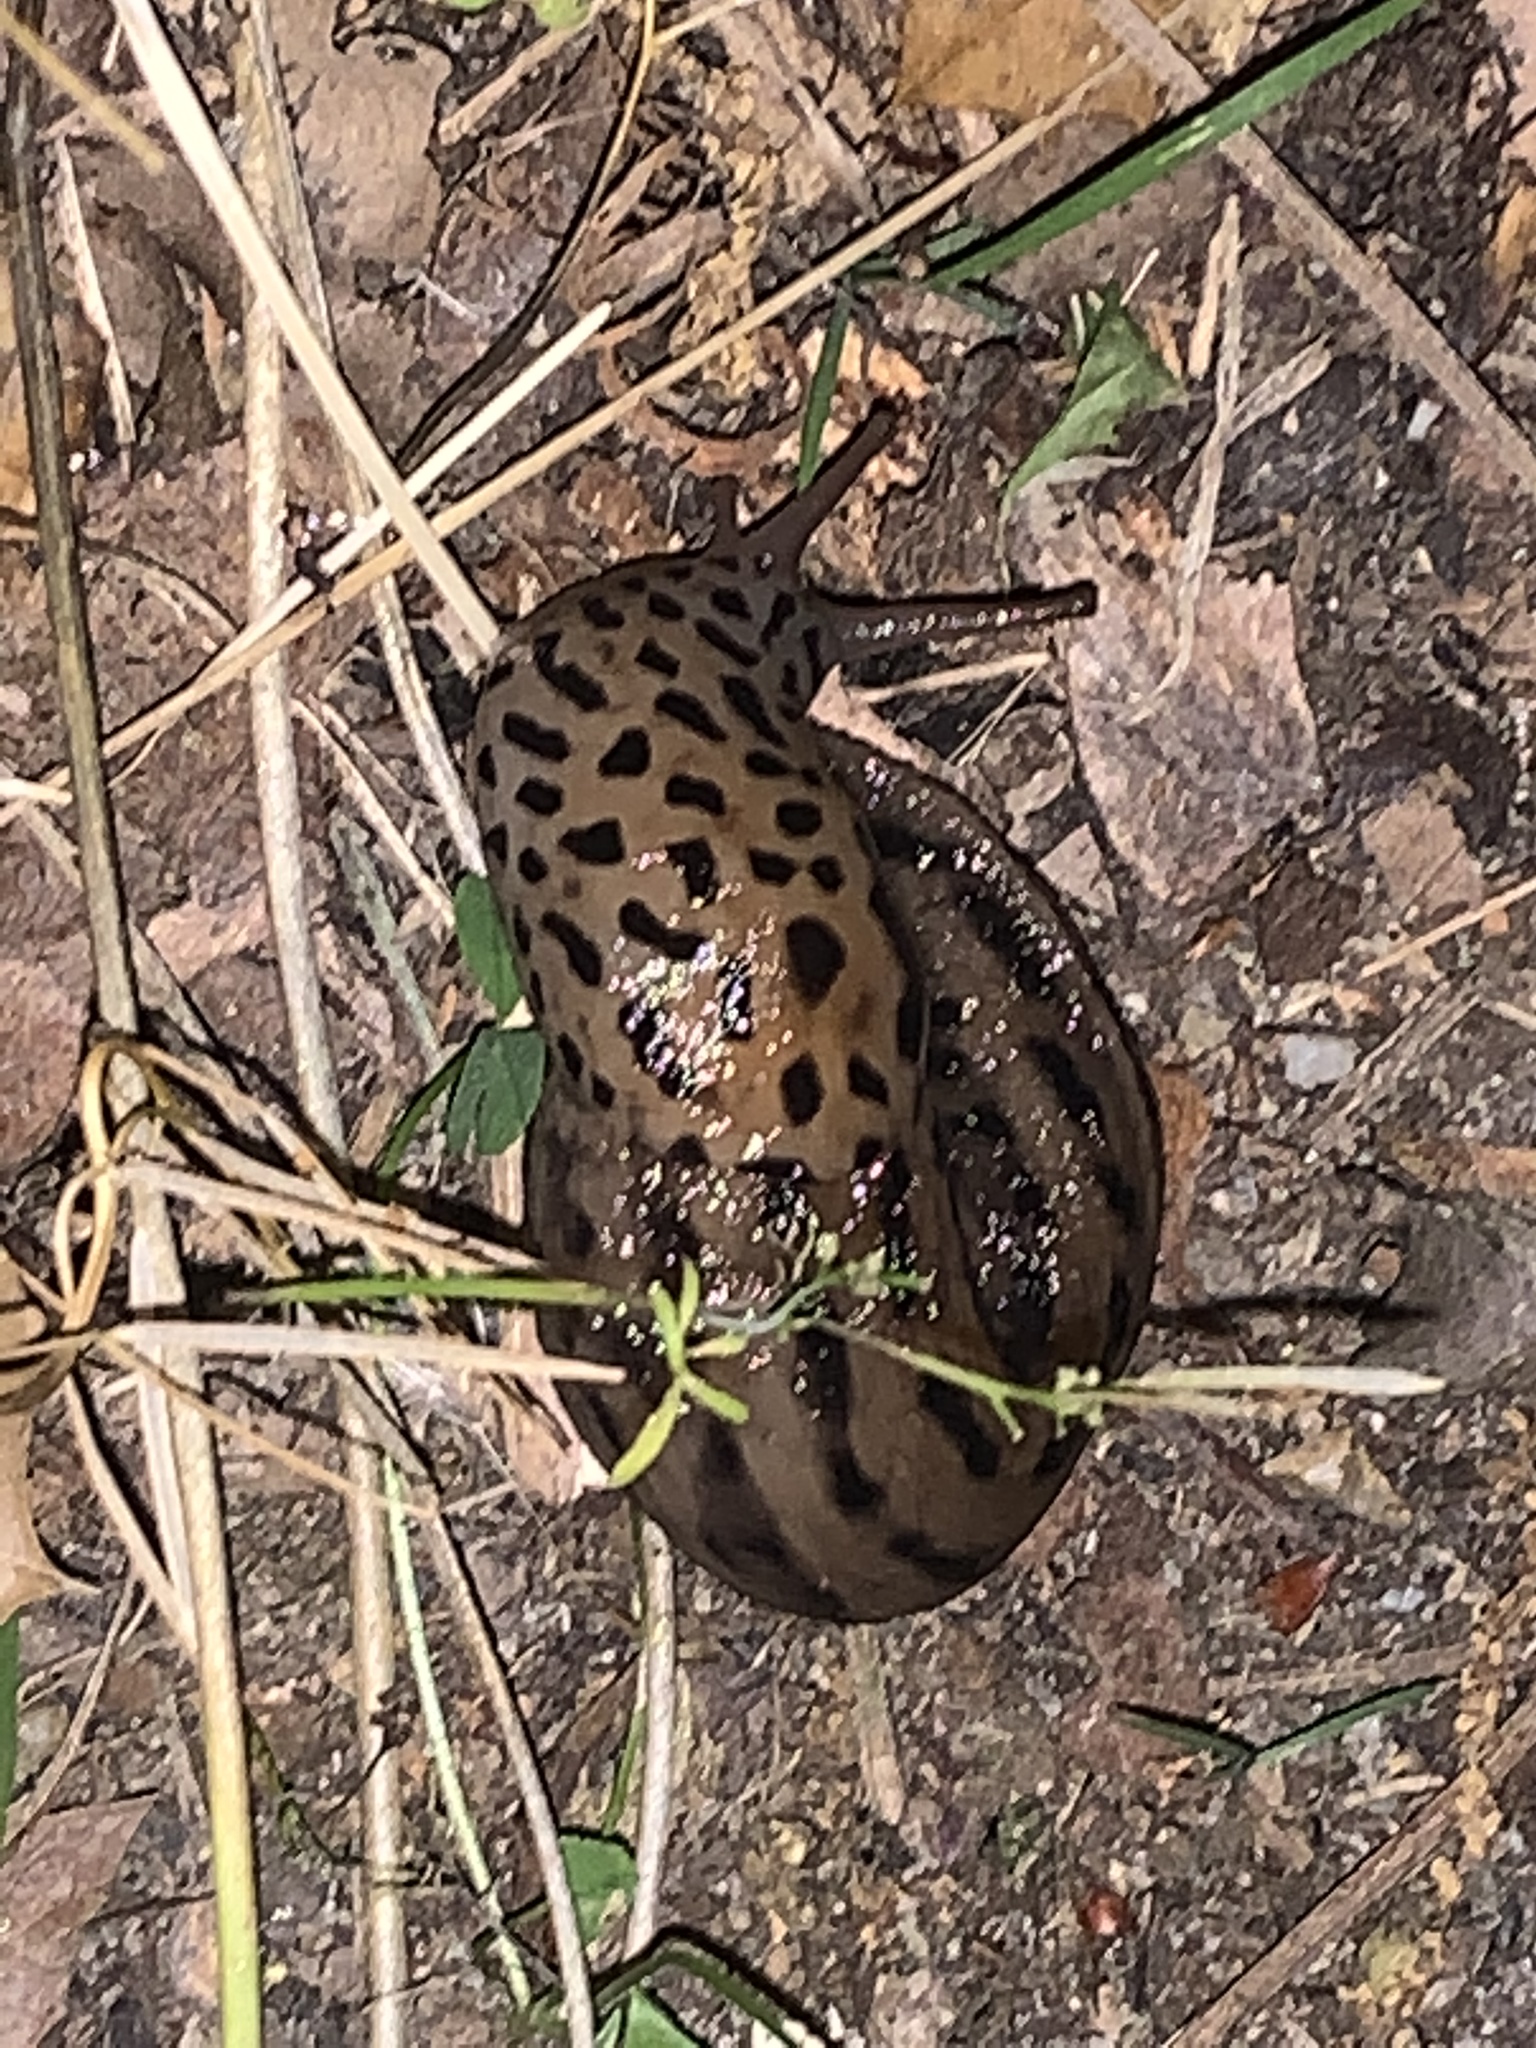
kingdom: Animalia
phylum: Mollusca
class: Gastropoda
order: Stylommatophora
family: Limacidae
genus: Limax
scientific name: Limax maximus
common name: Great grey slug
